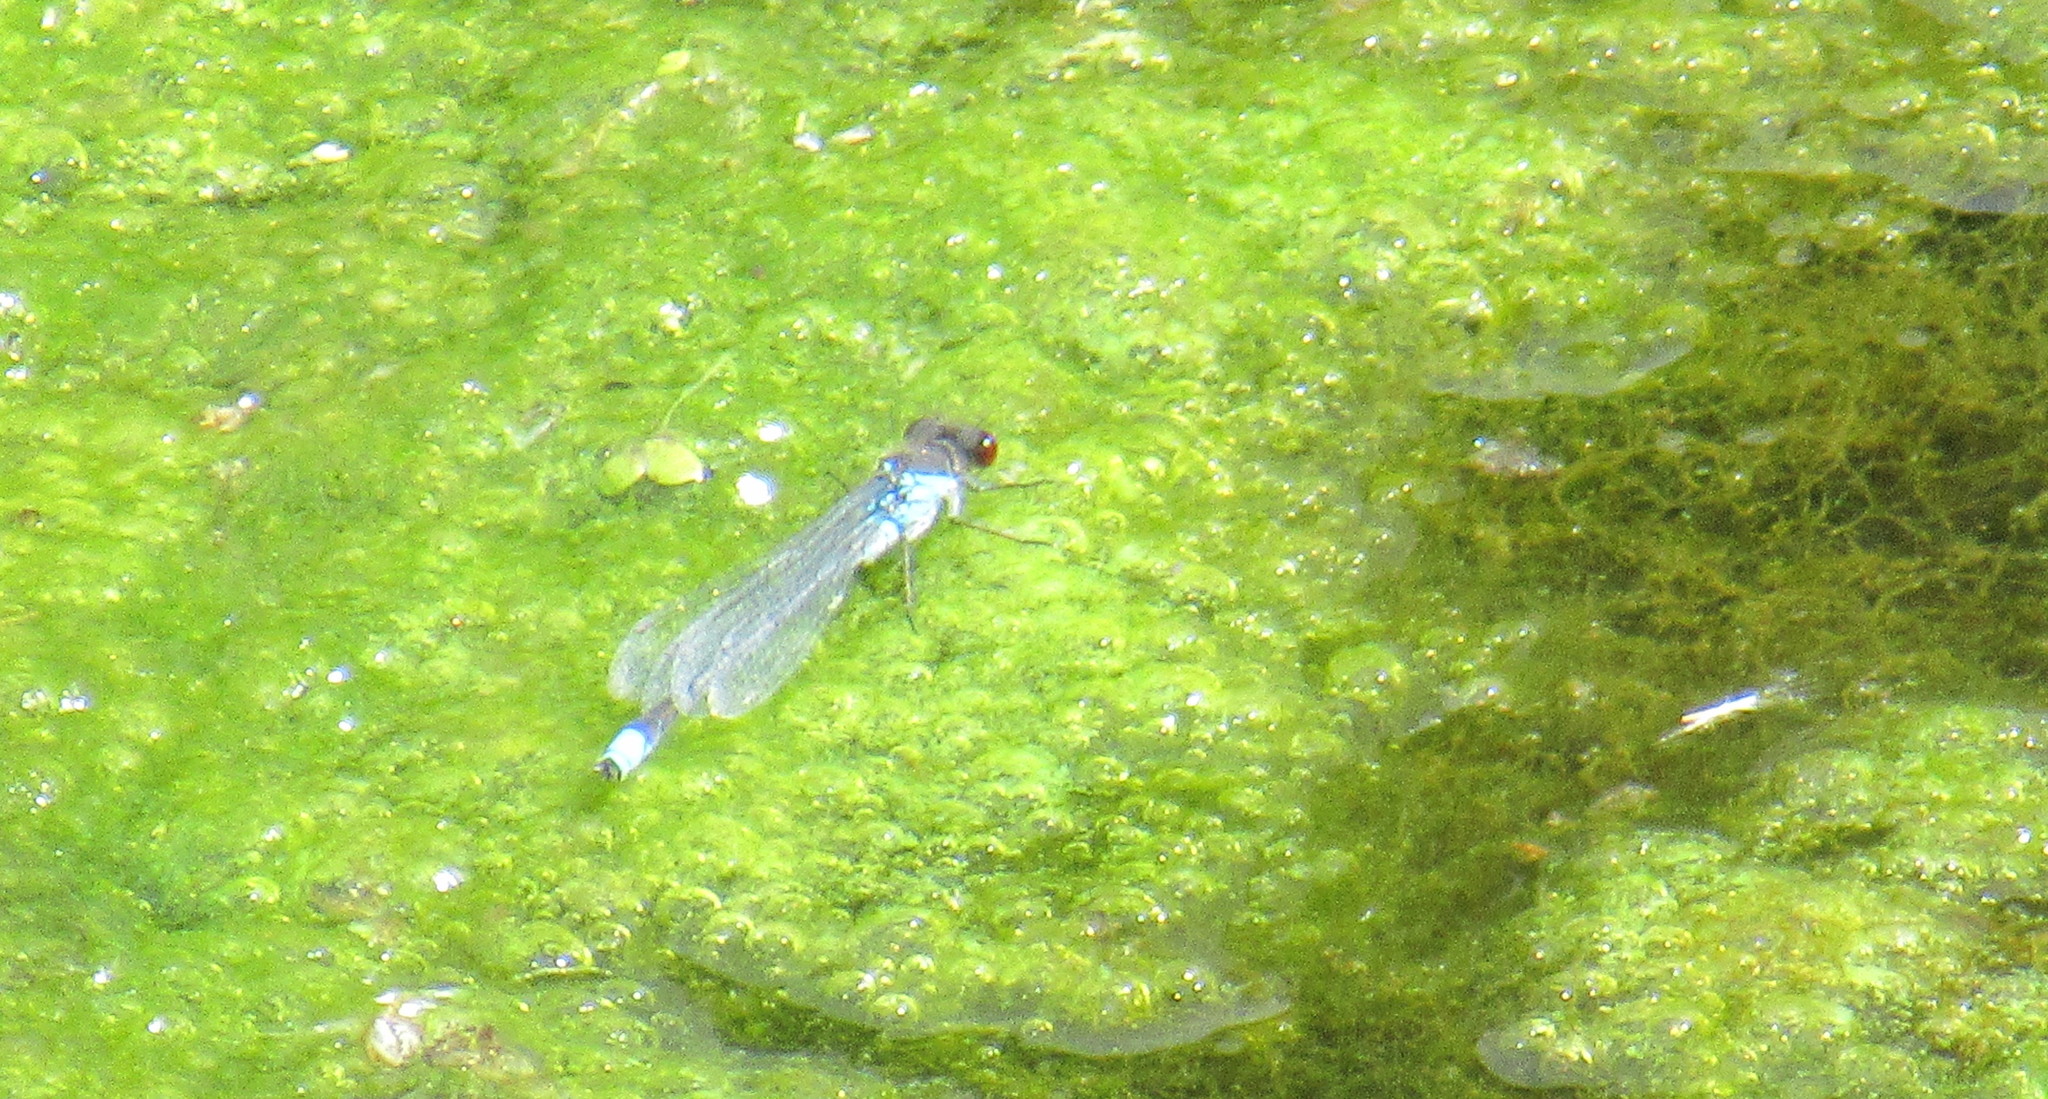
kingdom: Animalia
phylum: Arthropoda
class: Insecta
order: Odonata
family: Coenagrionidae
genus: Erythromma
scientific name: Erythromma najas
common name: Red-eyed damselfly
